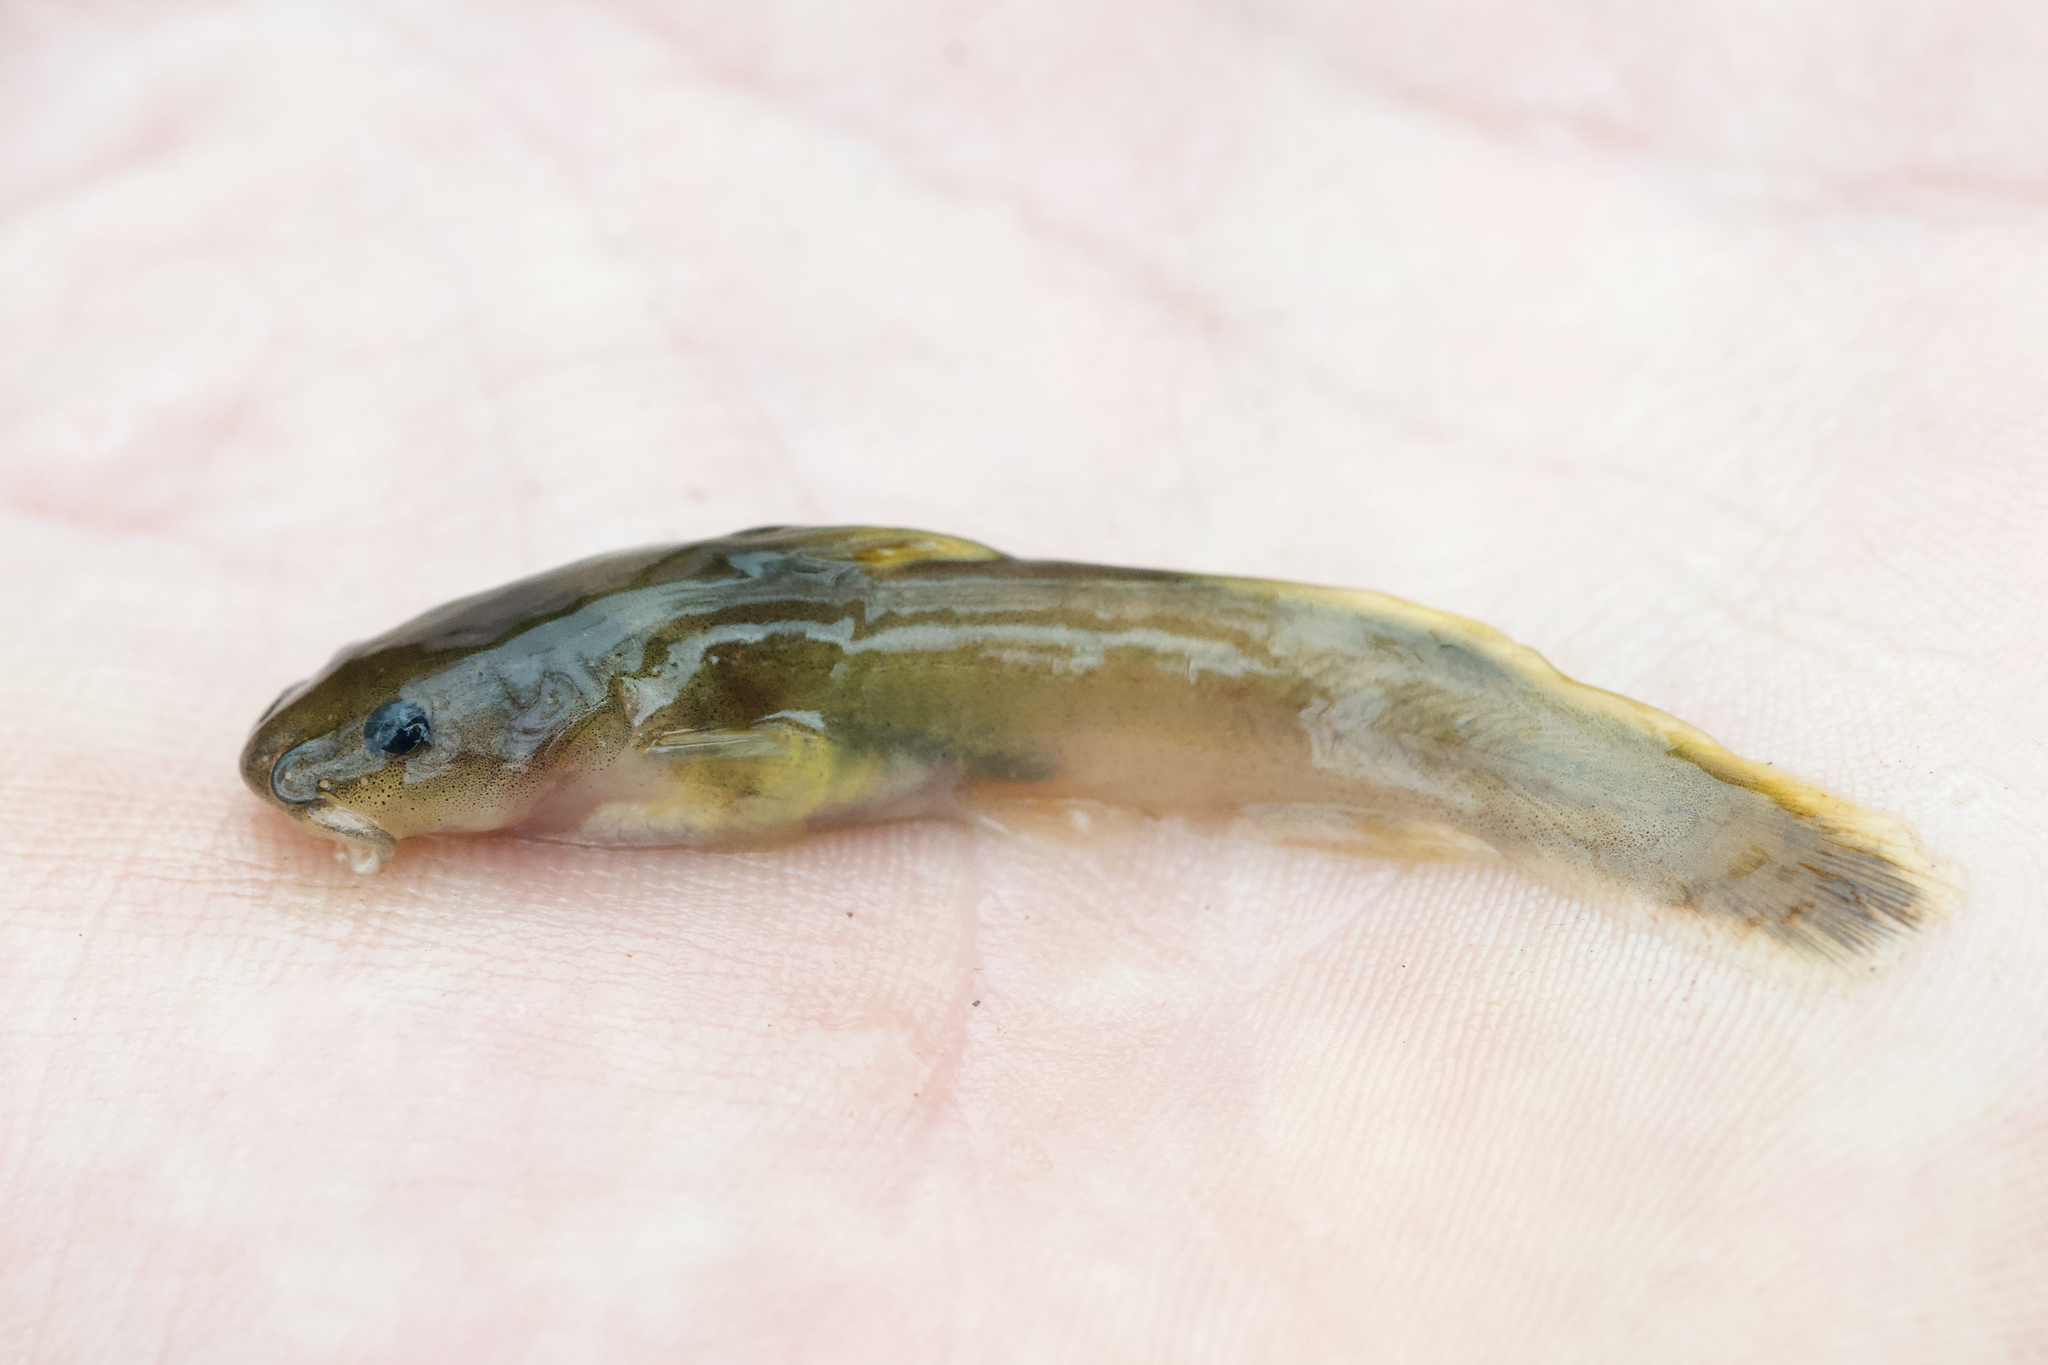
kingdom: Animalia
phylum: Chordata
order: Siluriformes
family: Ictaluridae
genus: Noturus
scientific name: Noturus flavus
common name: Stonecat
